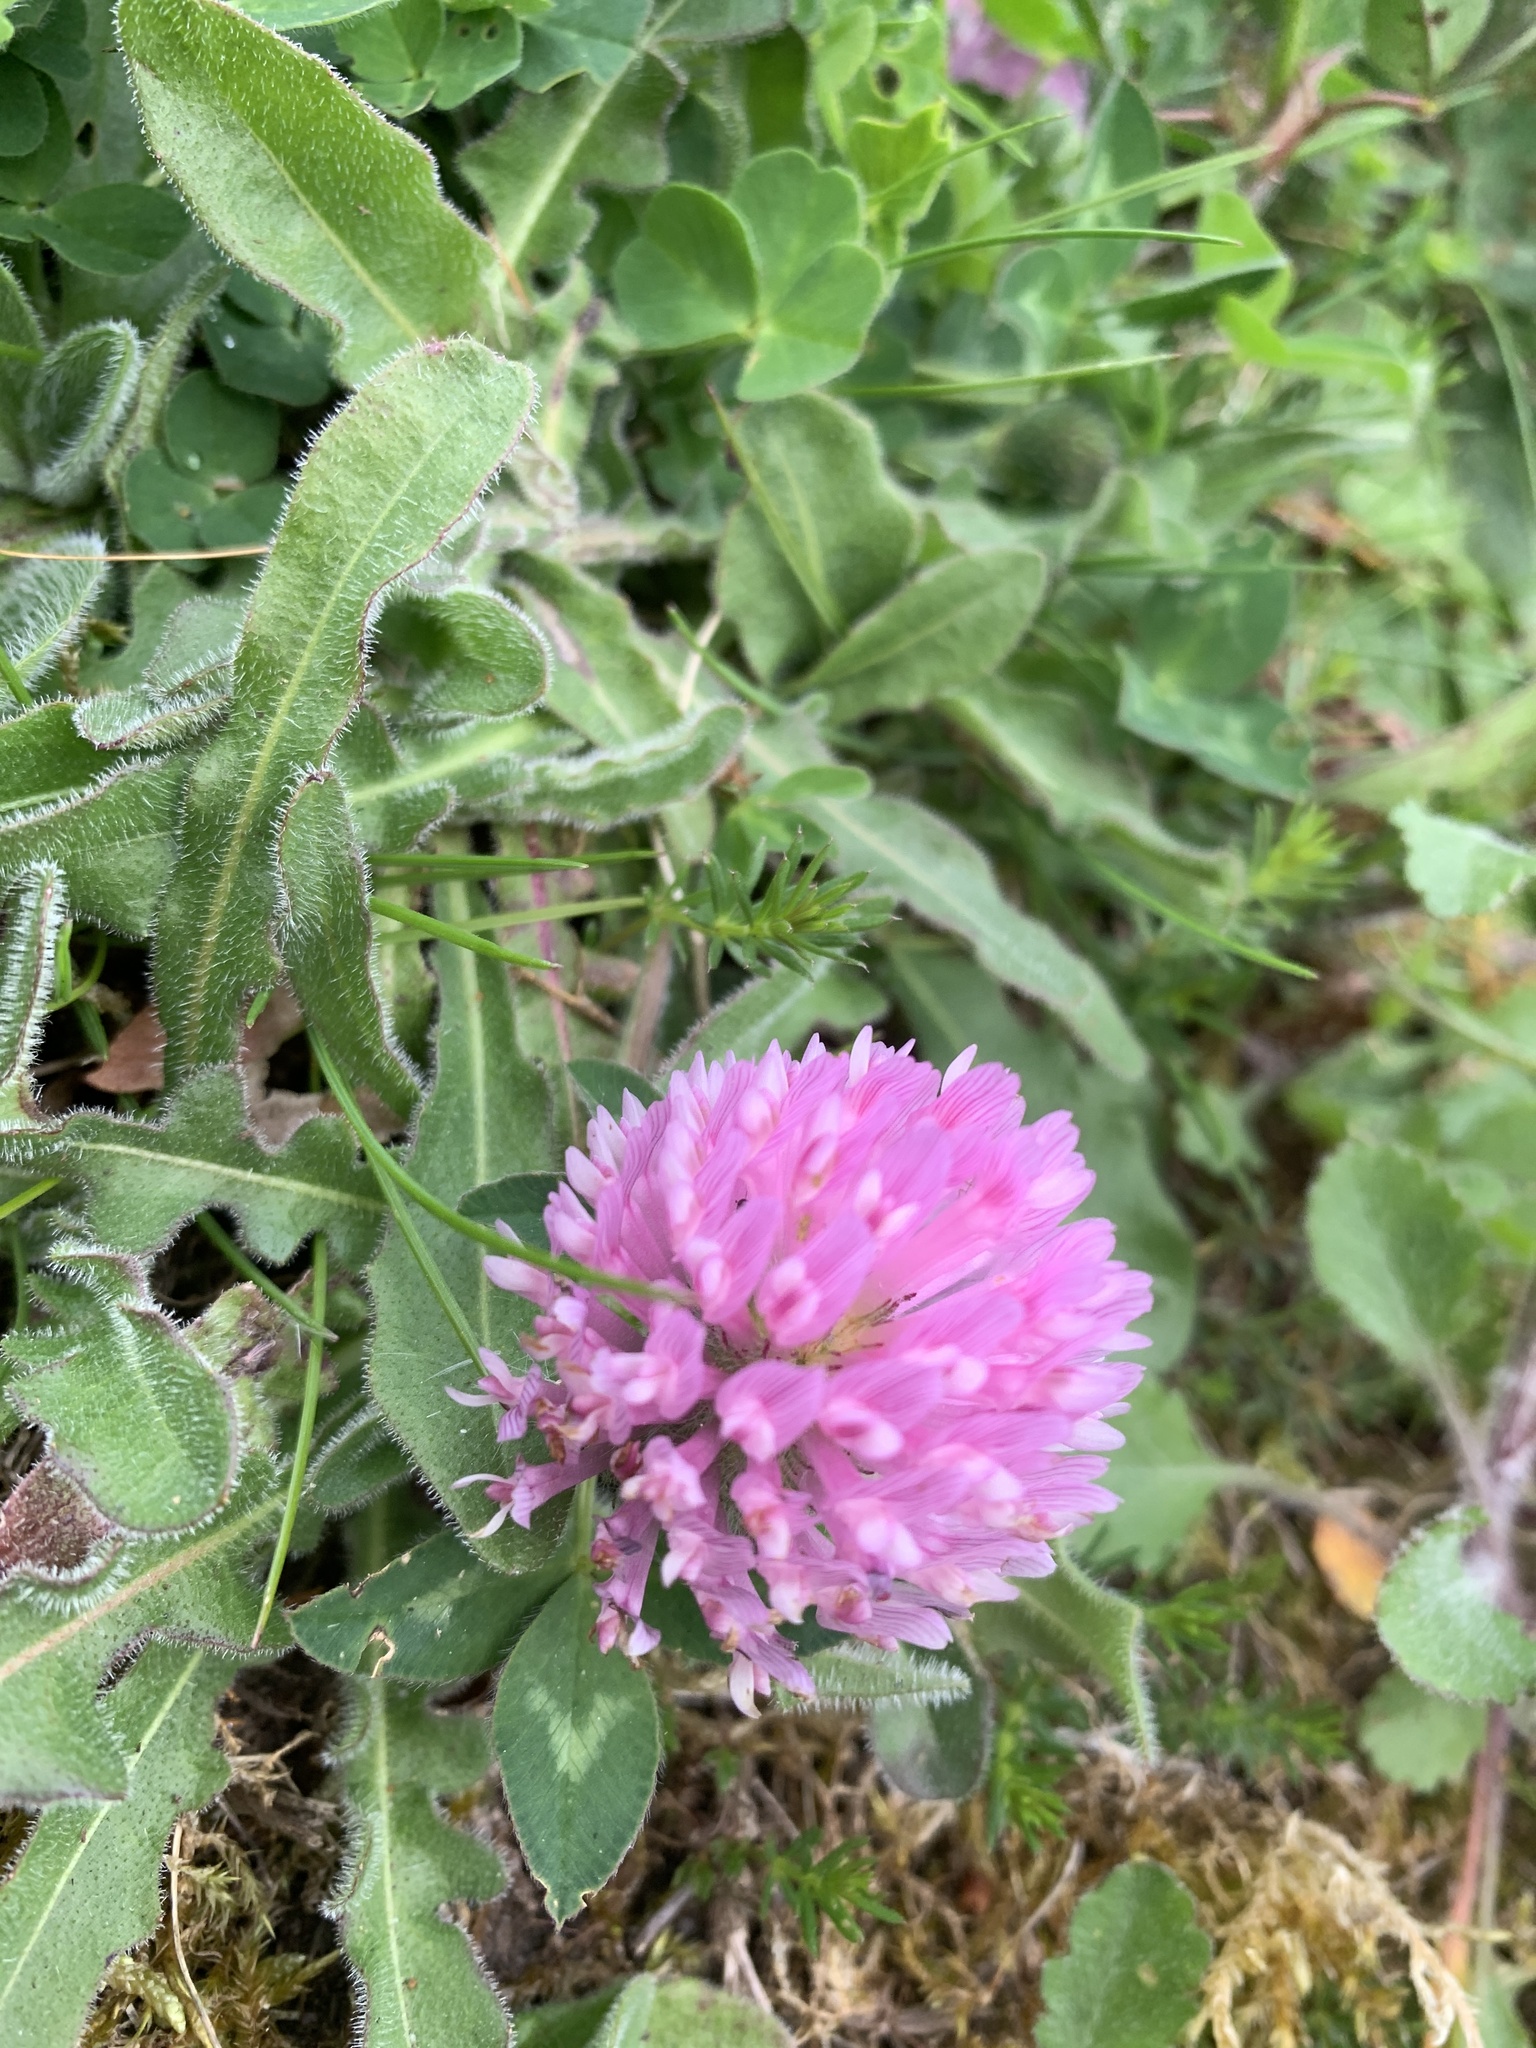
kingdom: Plantae
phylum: Tracheophyta
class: Magnoliopsida
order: Fabales
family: Fabaceae
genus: Trifolium
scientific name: Trifolium pratense
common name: Red clover
